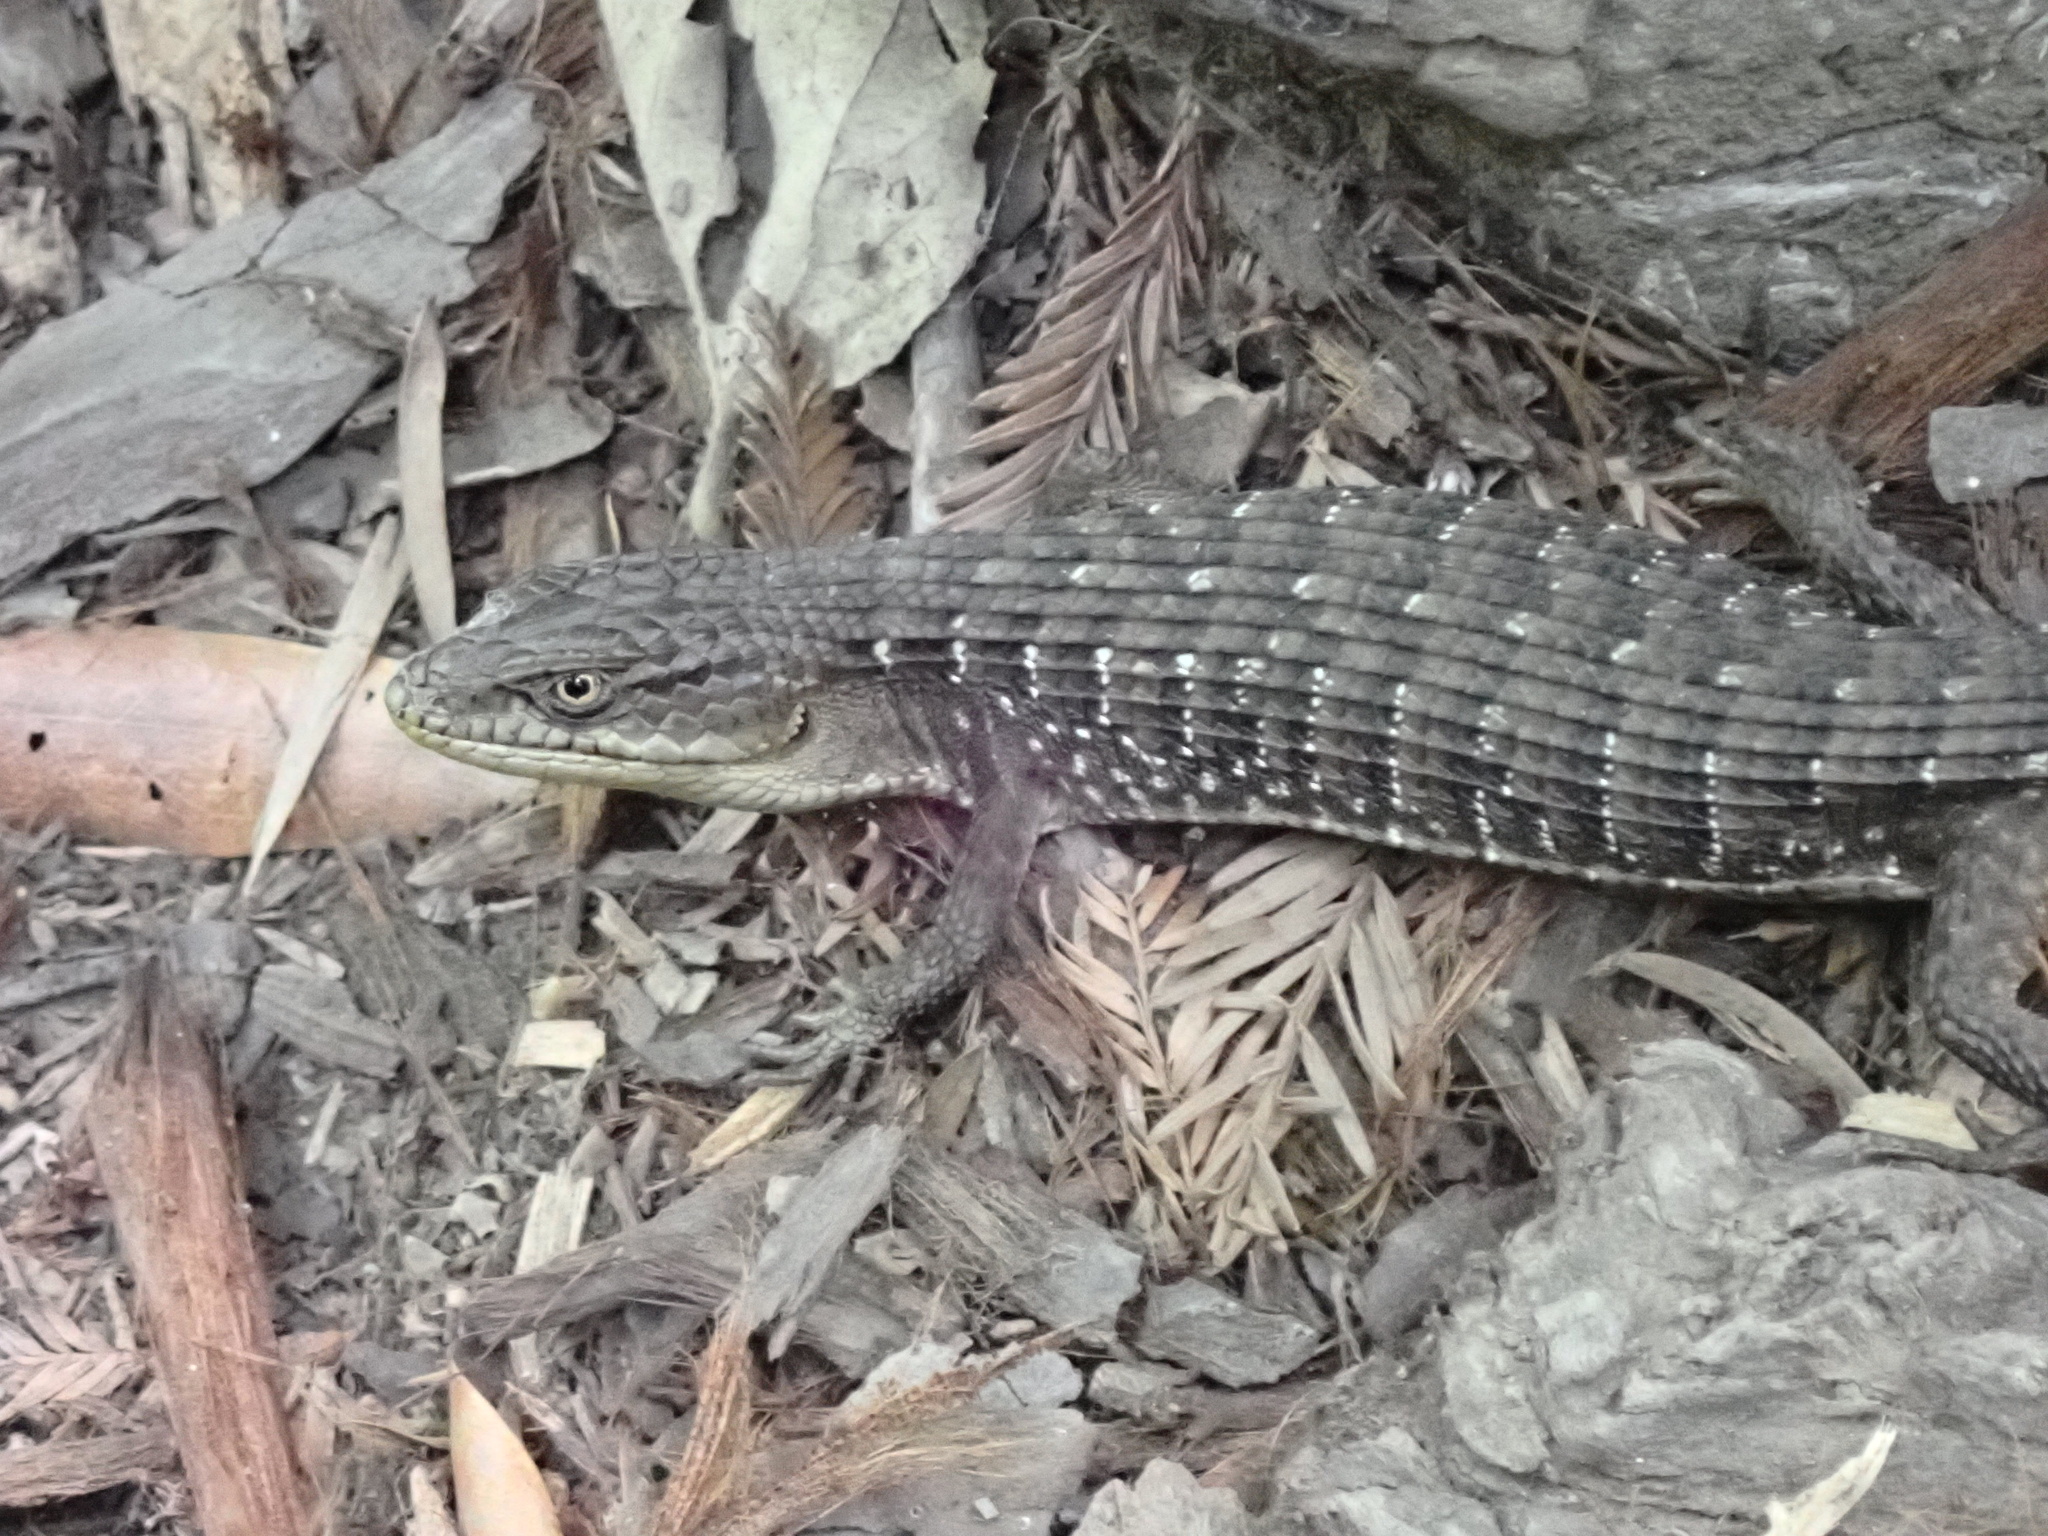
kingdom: Animalia
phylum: Chordata
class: Squamata
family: Anguidae
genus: Elgaria
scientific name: Elgaria multicarinata
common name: Southern alligator lizard
